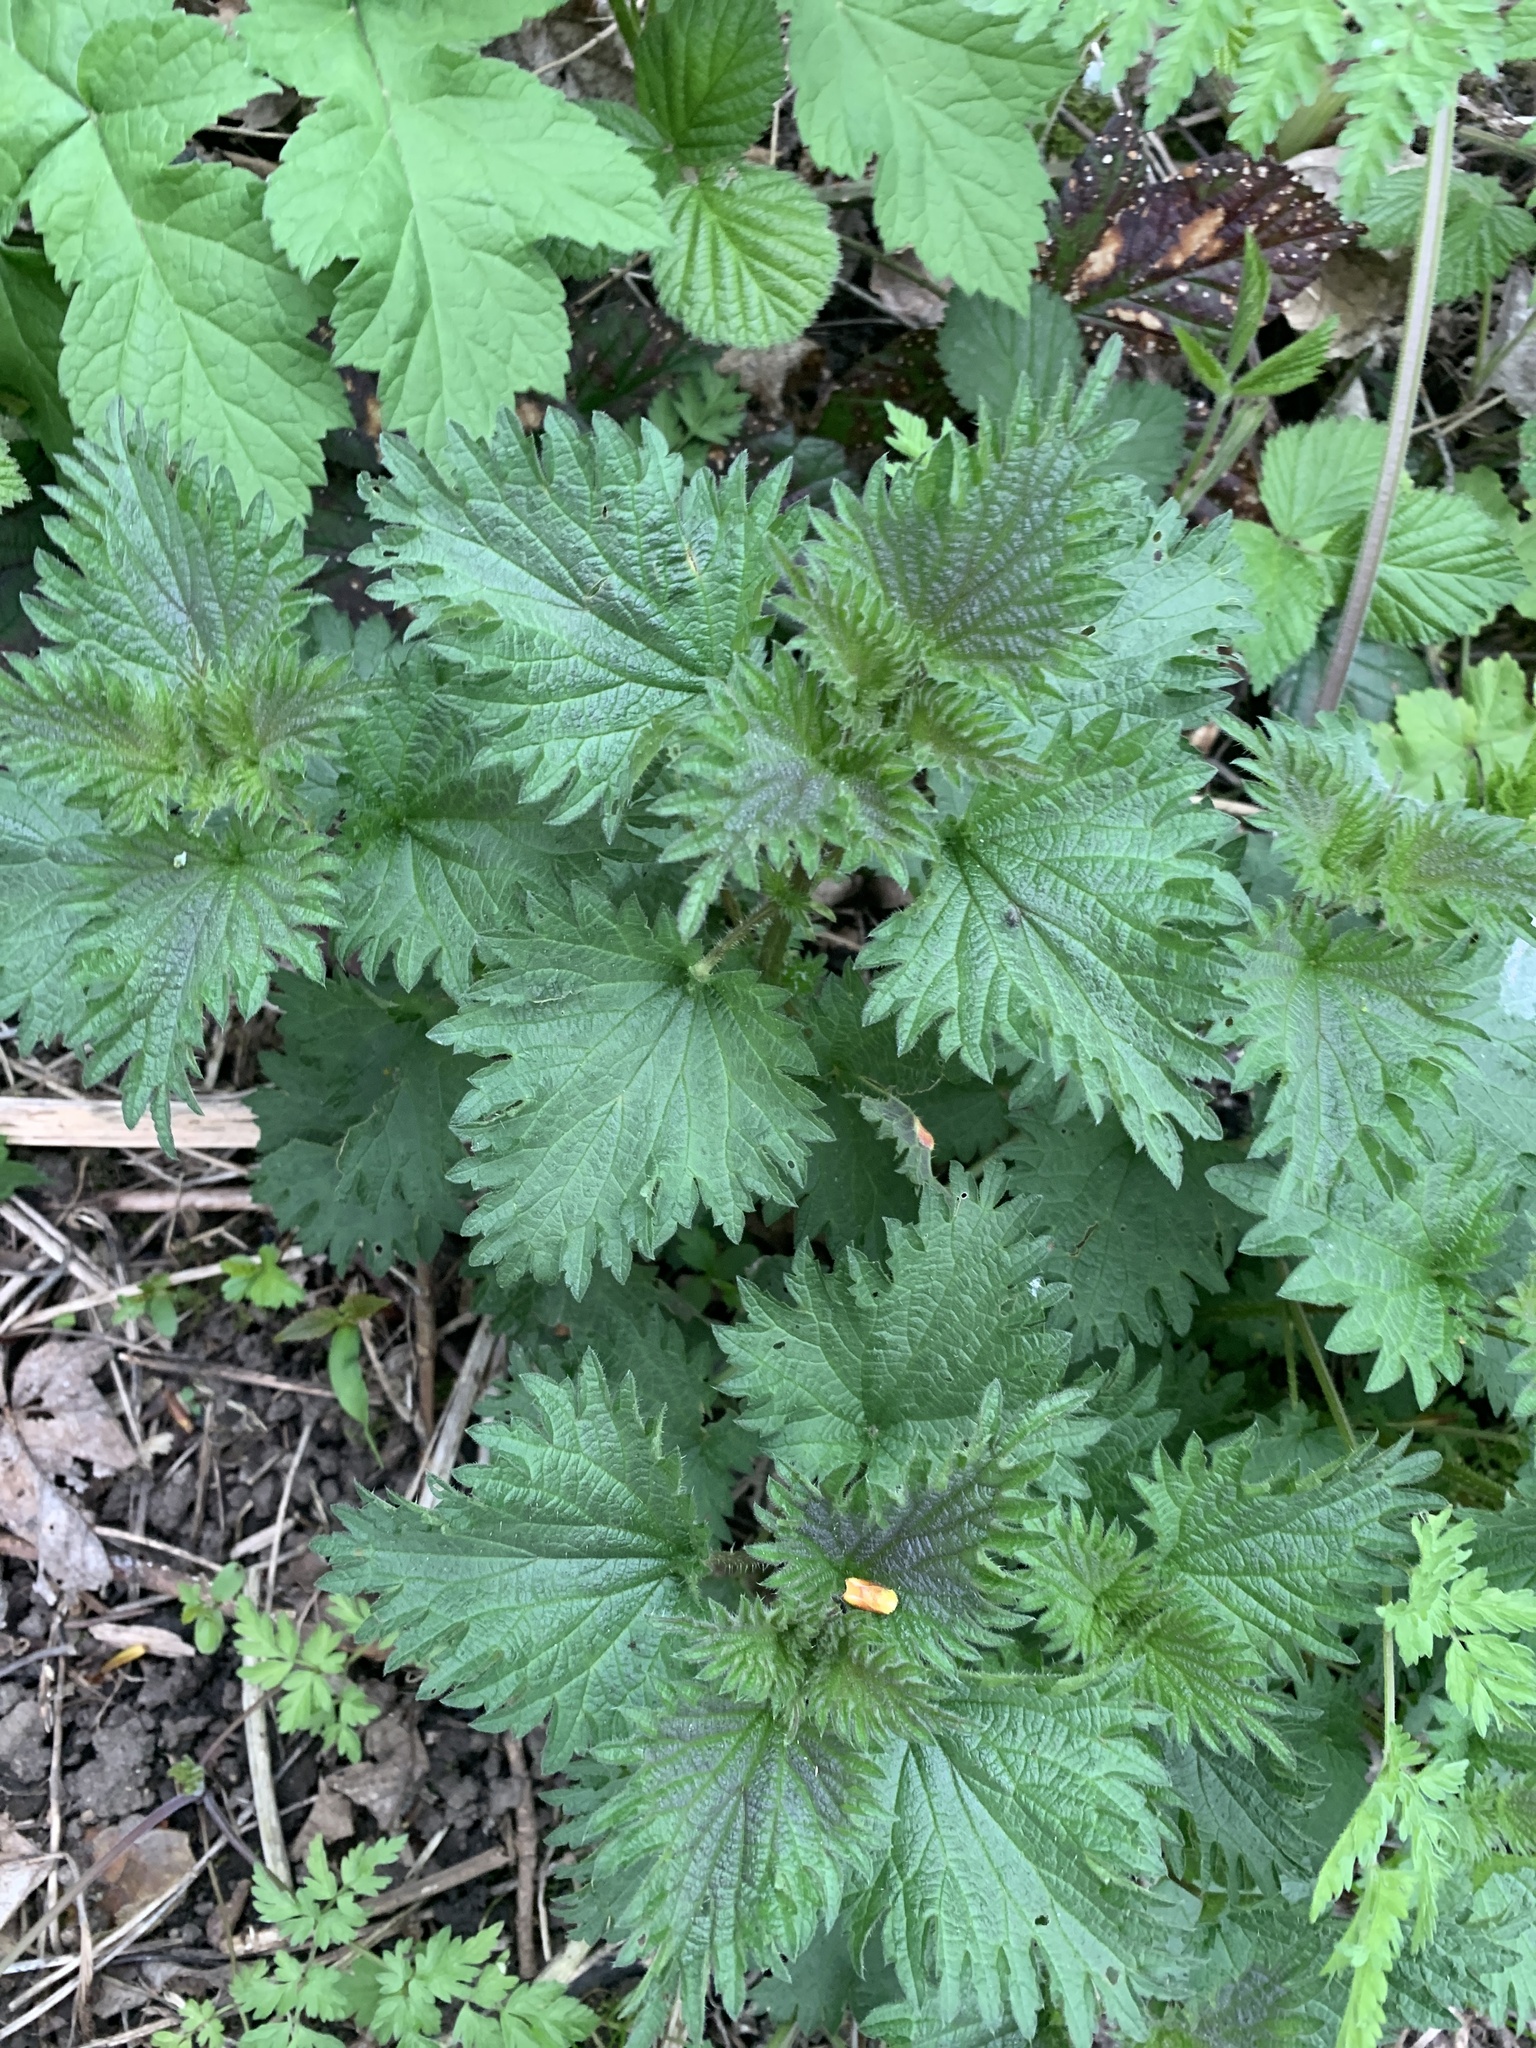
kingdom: Plantae
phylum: Tracheophyta
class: Magnoliopsida
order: Rosales
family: Urticaceae
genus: Urtica
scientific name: Urtica dioica
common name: Common nettle
